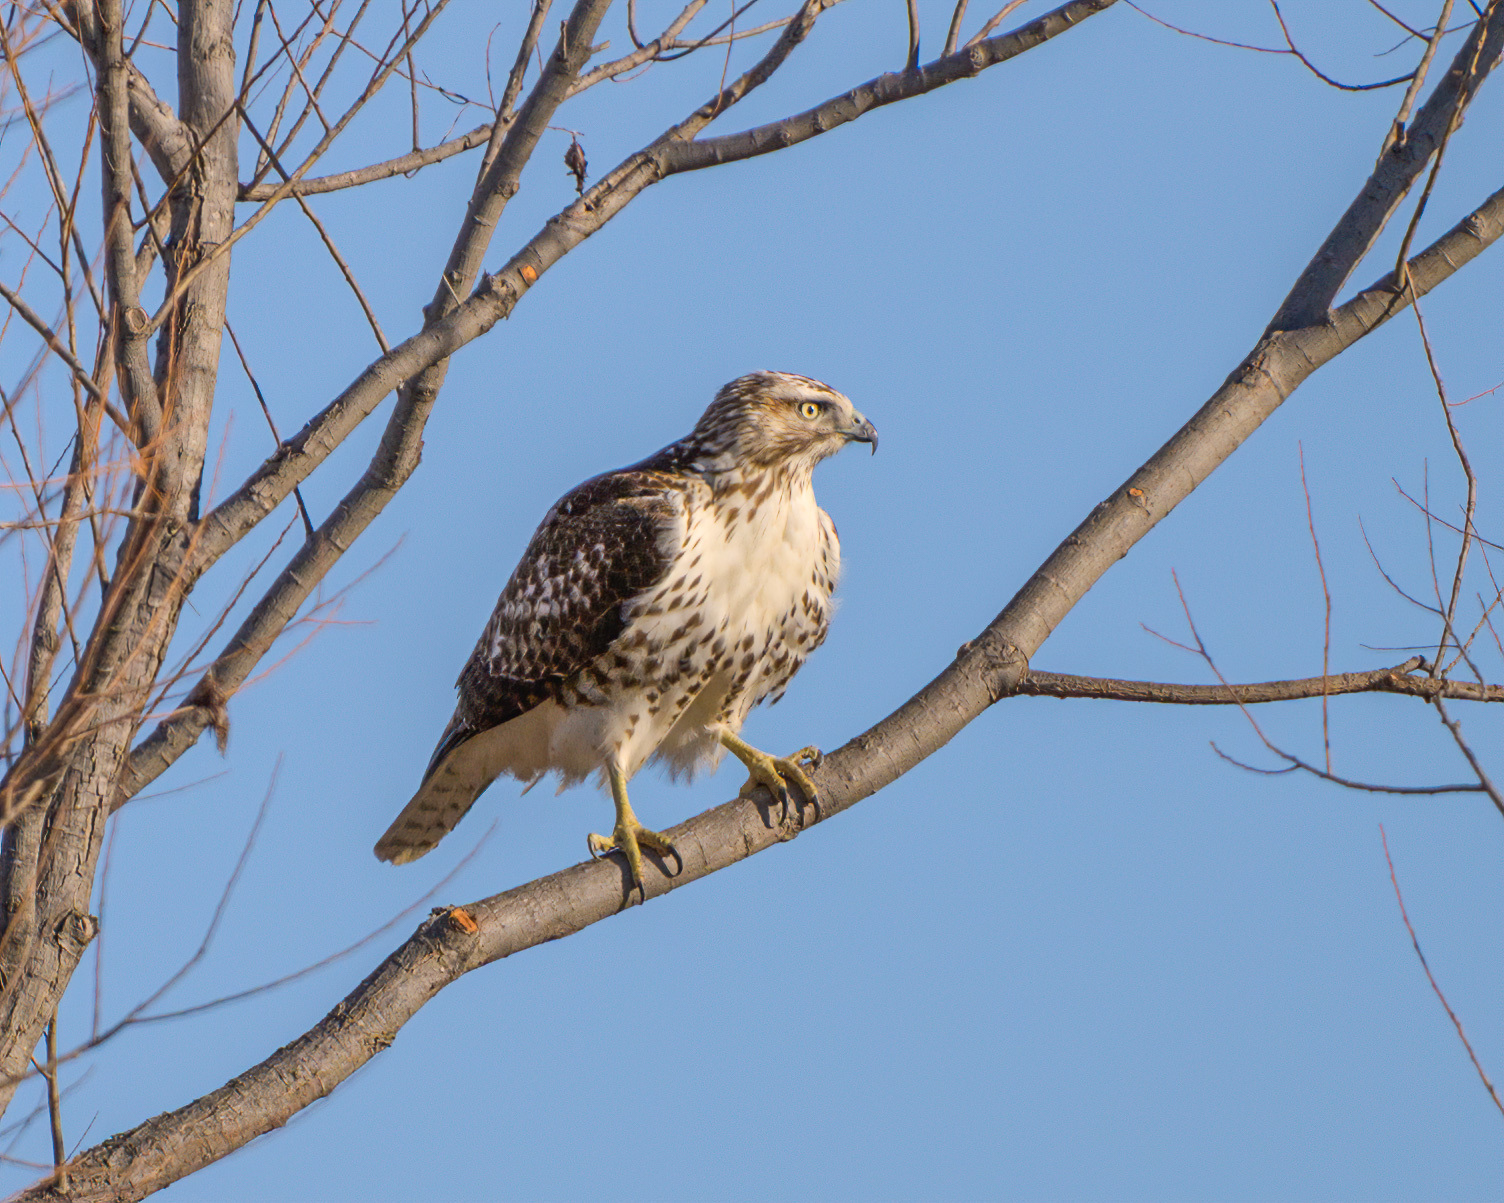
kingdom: Animalia
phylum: Chordata
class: Aves
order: Accipitriformes
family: Accipitridae
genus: Buteo
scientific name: Buteo jamaicensis
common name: Red-tailed hawk
